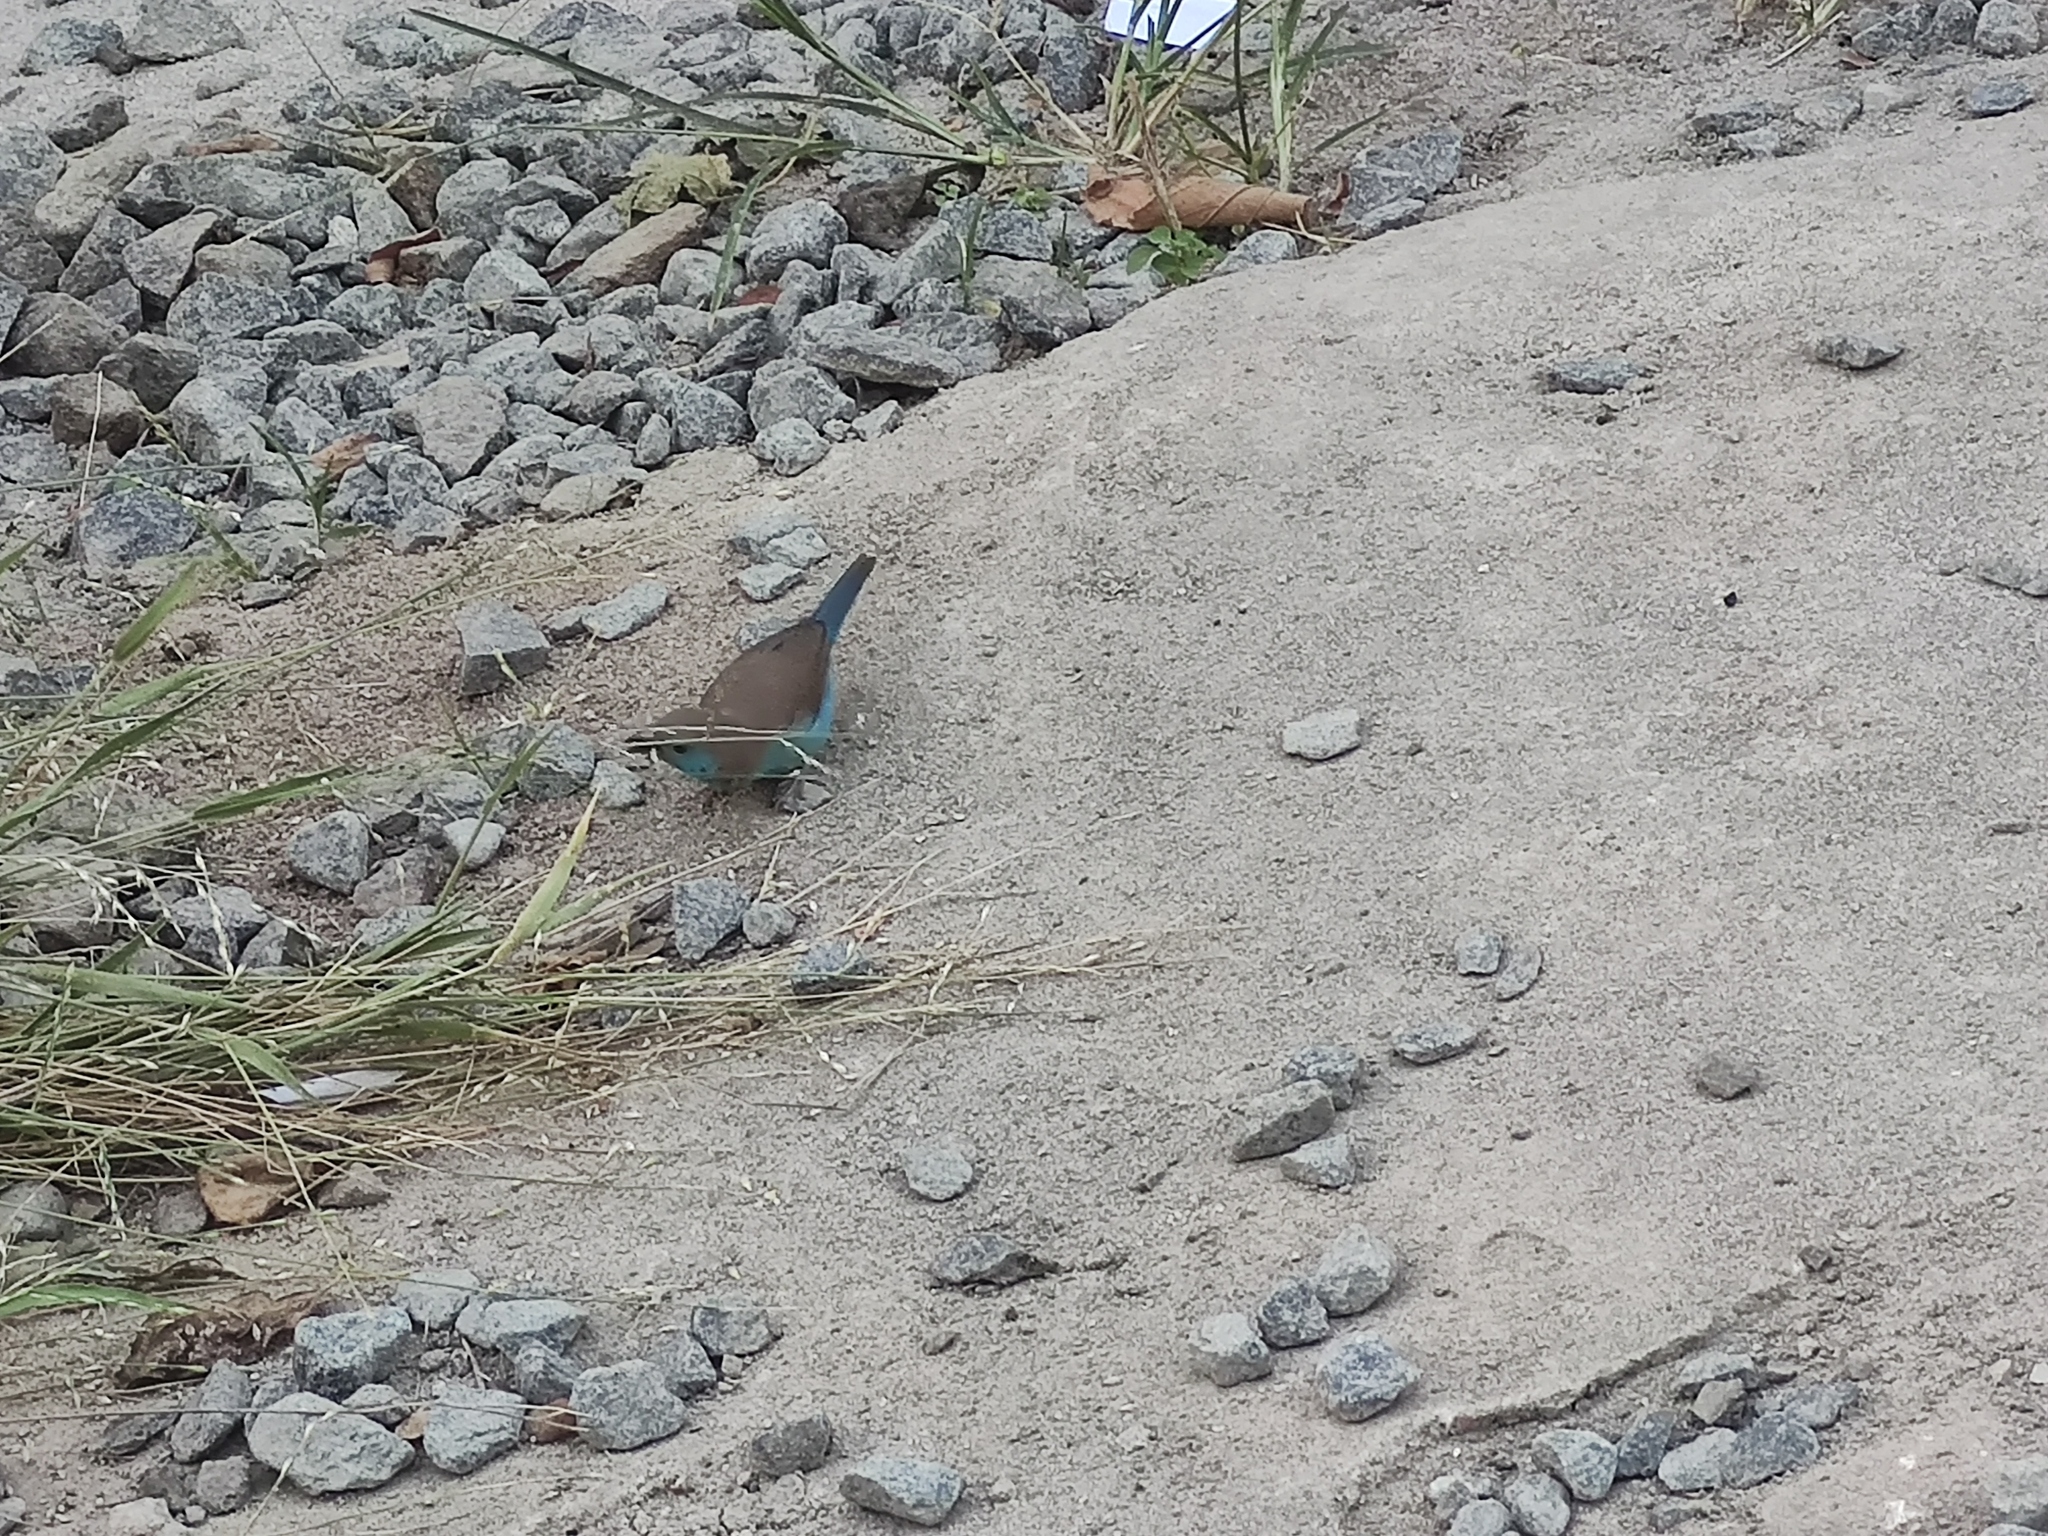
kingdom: Animalia
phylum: Chordata
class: Aves
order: Passeriformes
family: Estrildidae
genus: Uraeginthus
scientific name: Uraeginthus angolensis
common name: Blue waxbill
